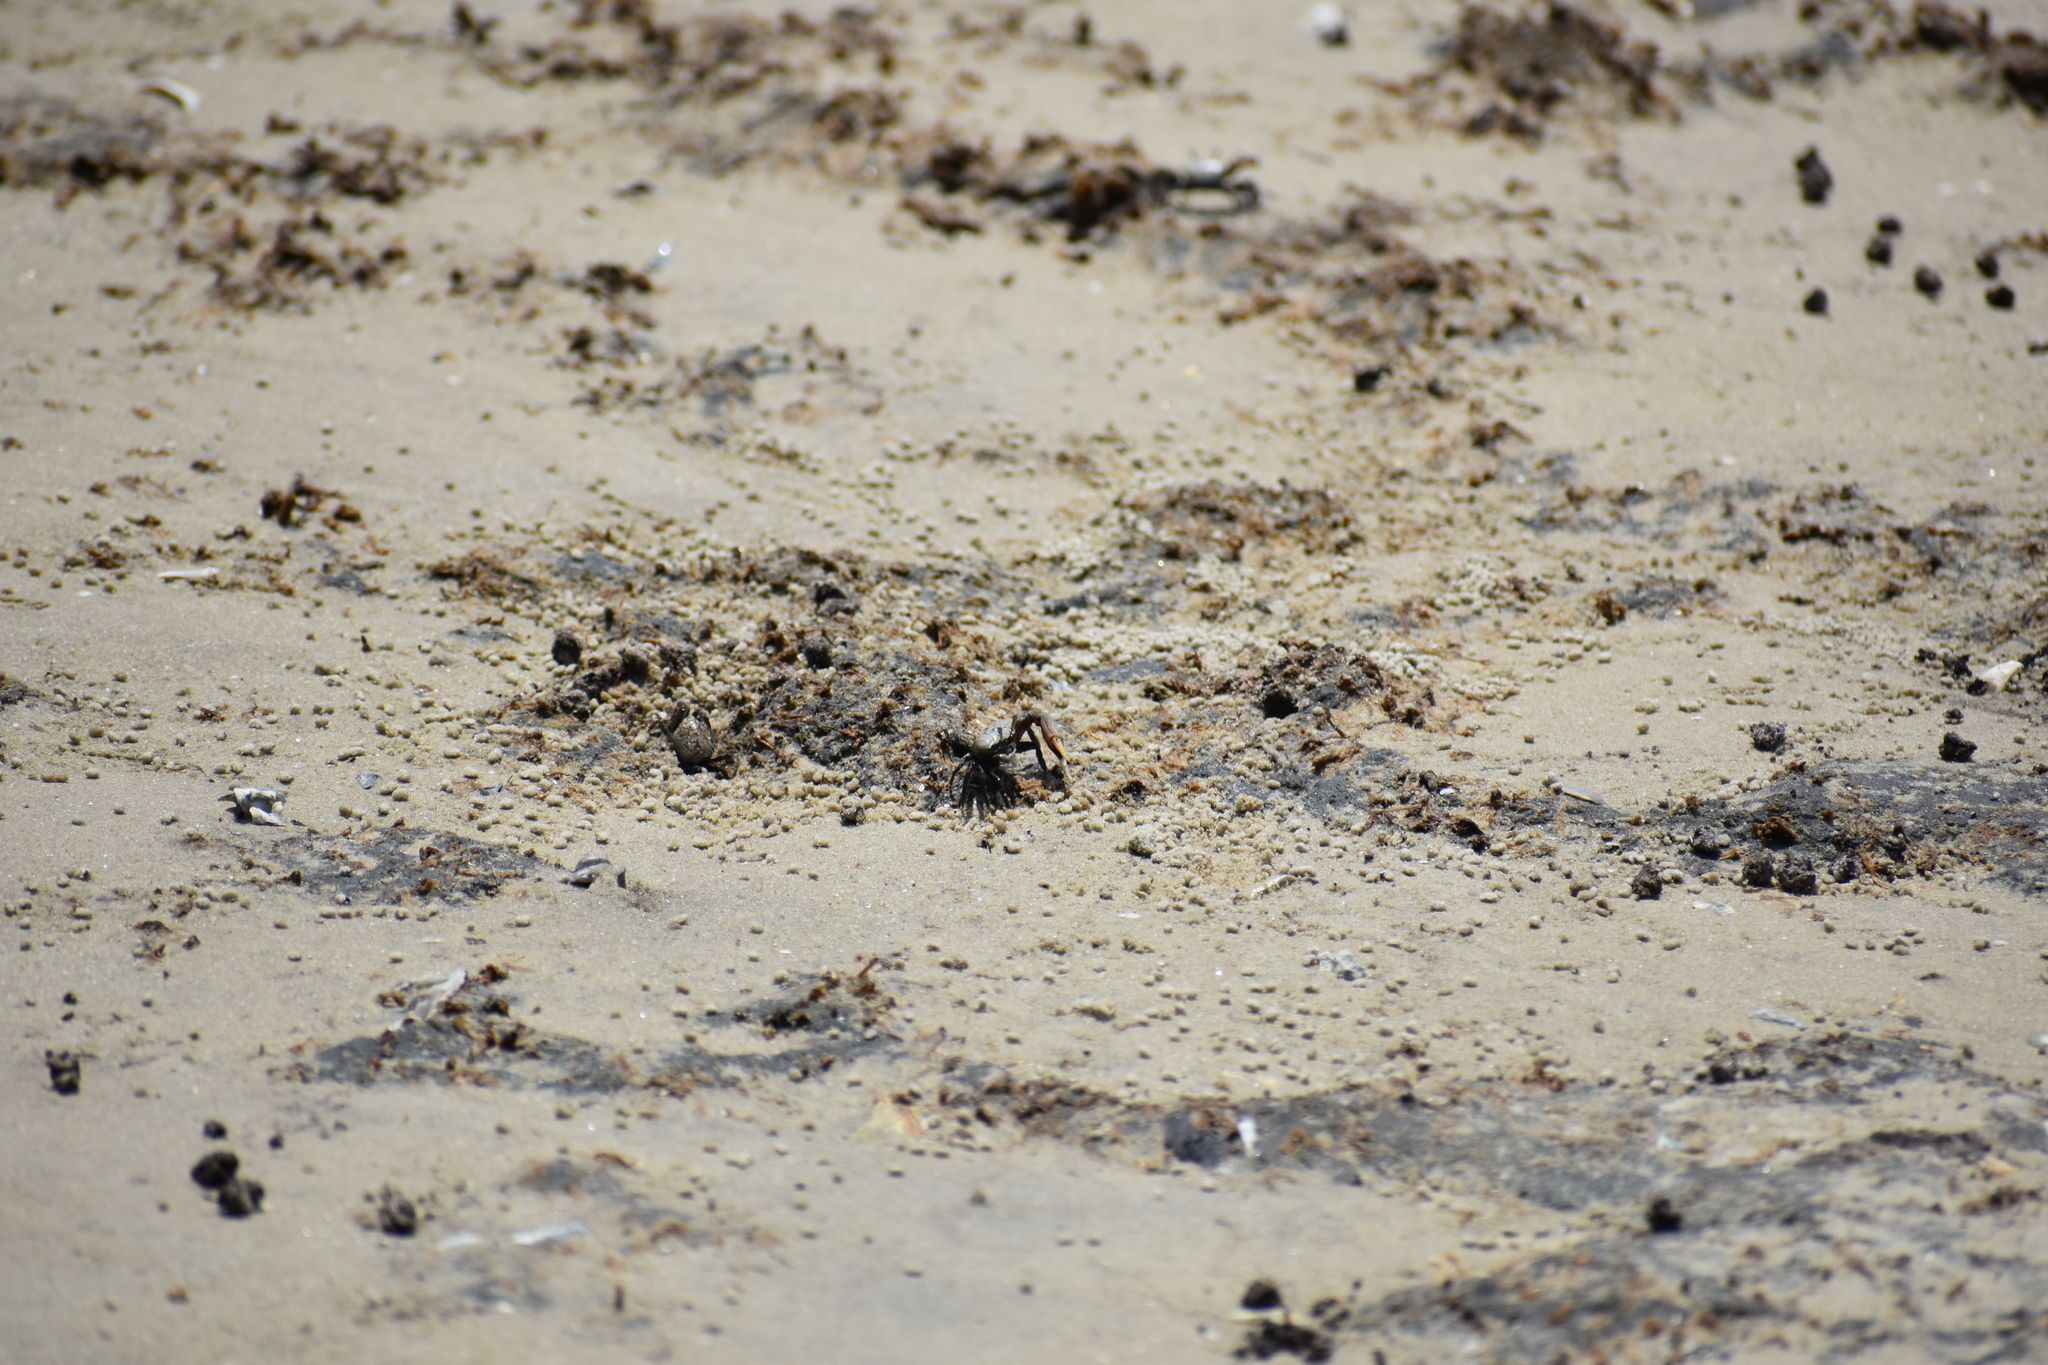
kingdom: Animalia
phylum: Arthropoda
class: Malacostraca
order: Decapoda
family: Ocypodidae
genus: Leptuca
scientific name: Leptuca pugilator
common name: Atlantic sand fiddler crab
